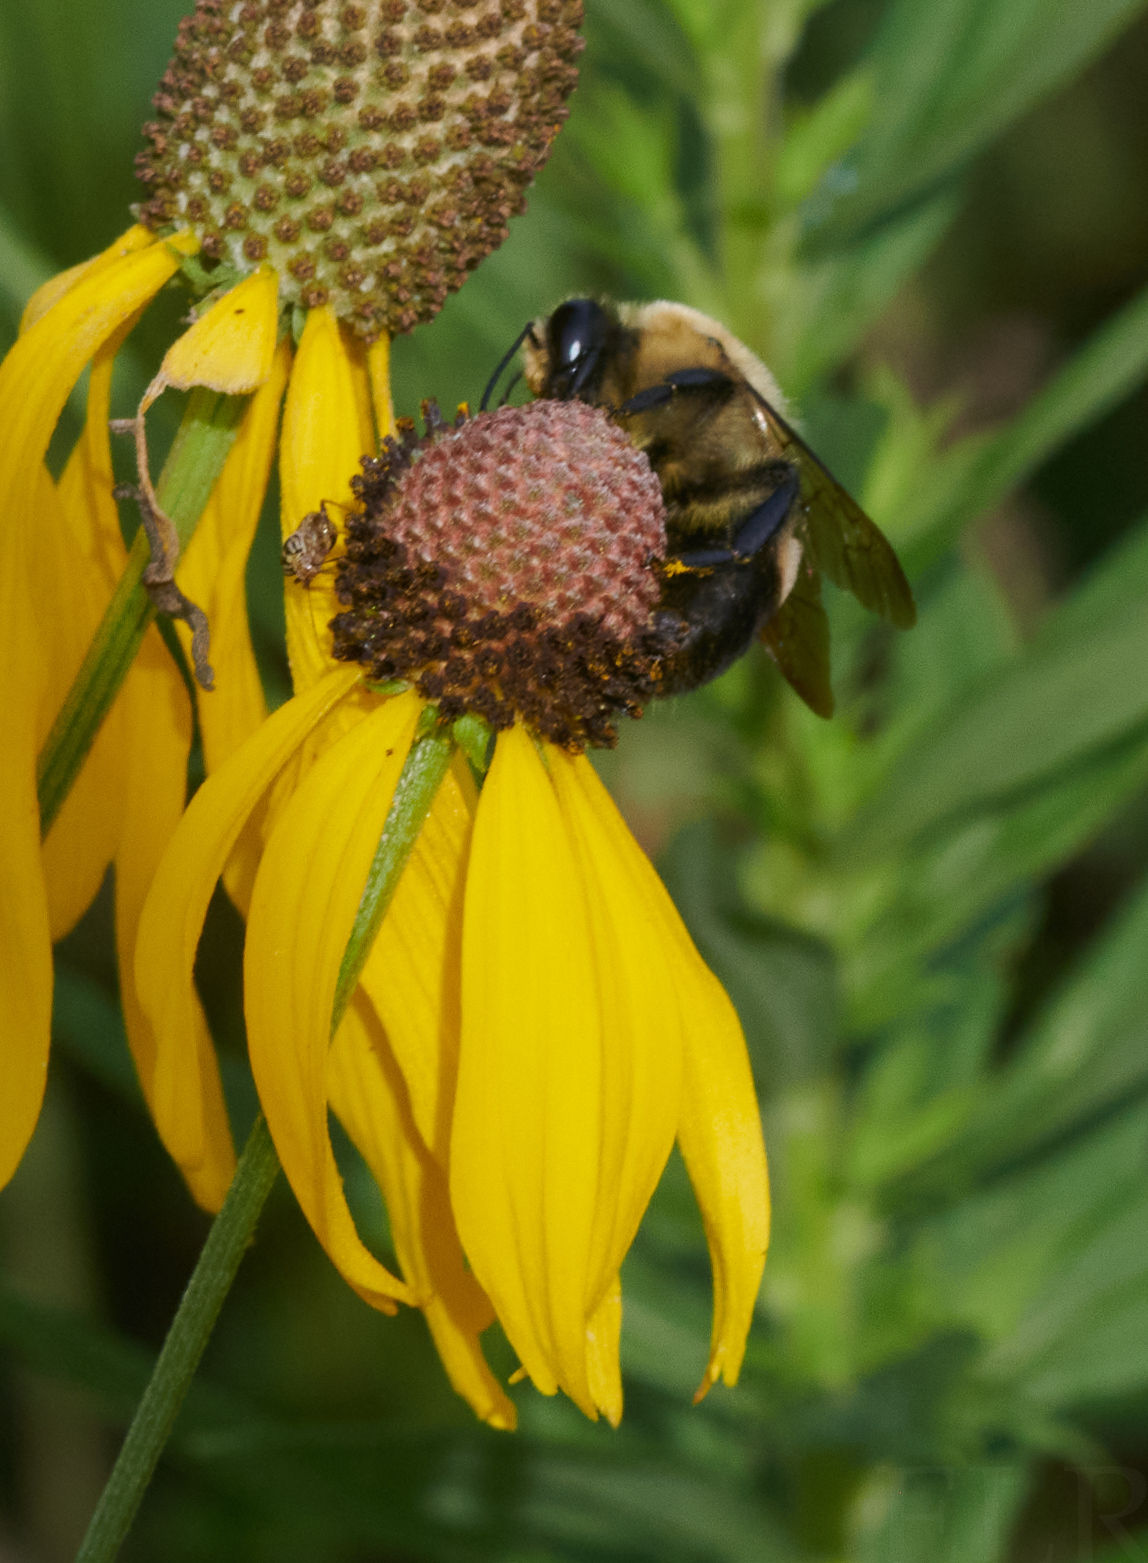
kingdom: Animalia
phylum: Arthropoda
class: Insecta
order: Hymenoptera
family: Apidae
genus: Bombus
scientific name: Bombus griseocollis
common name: Brown-belted bumble bee
